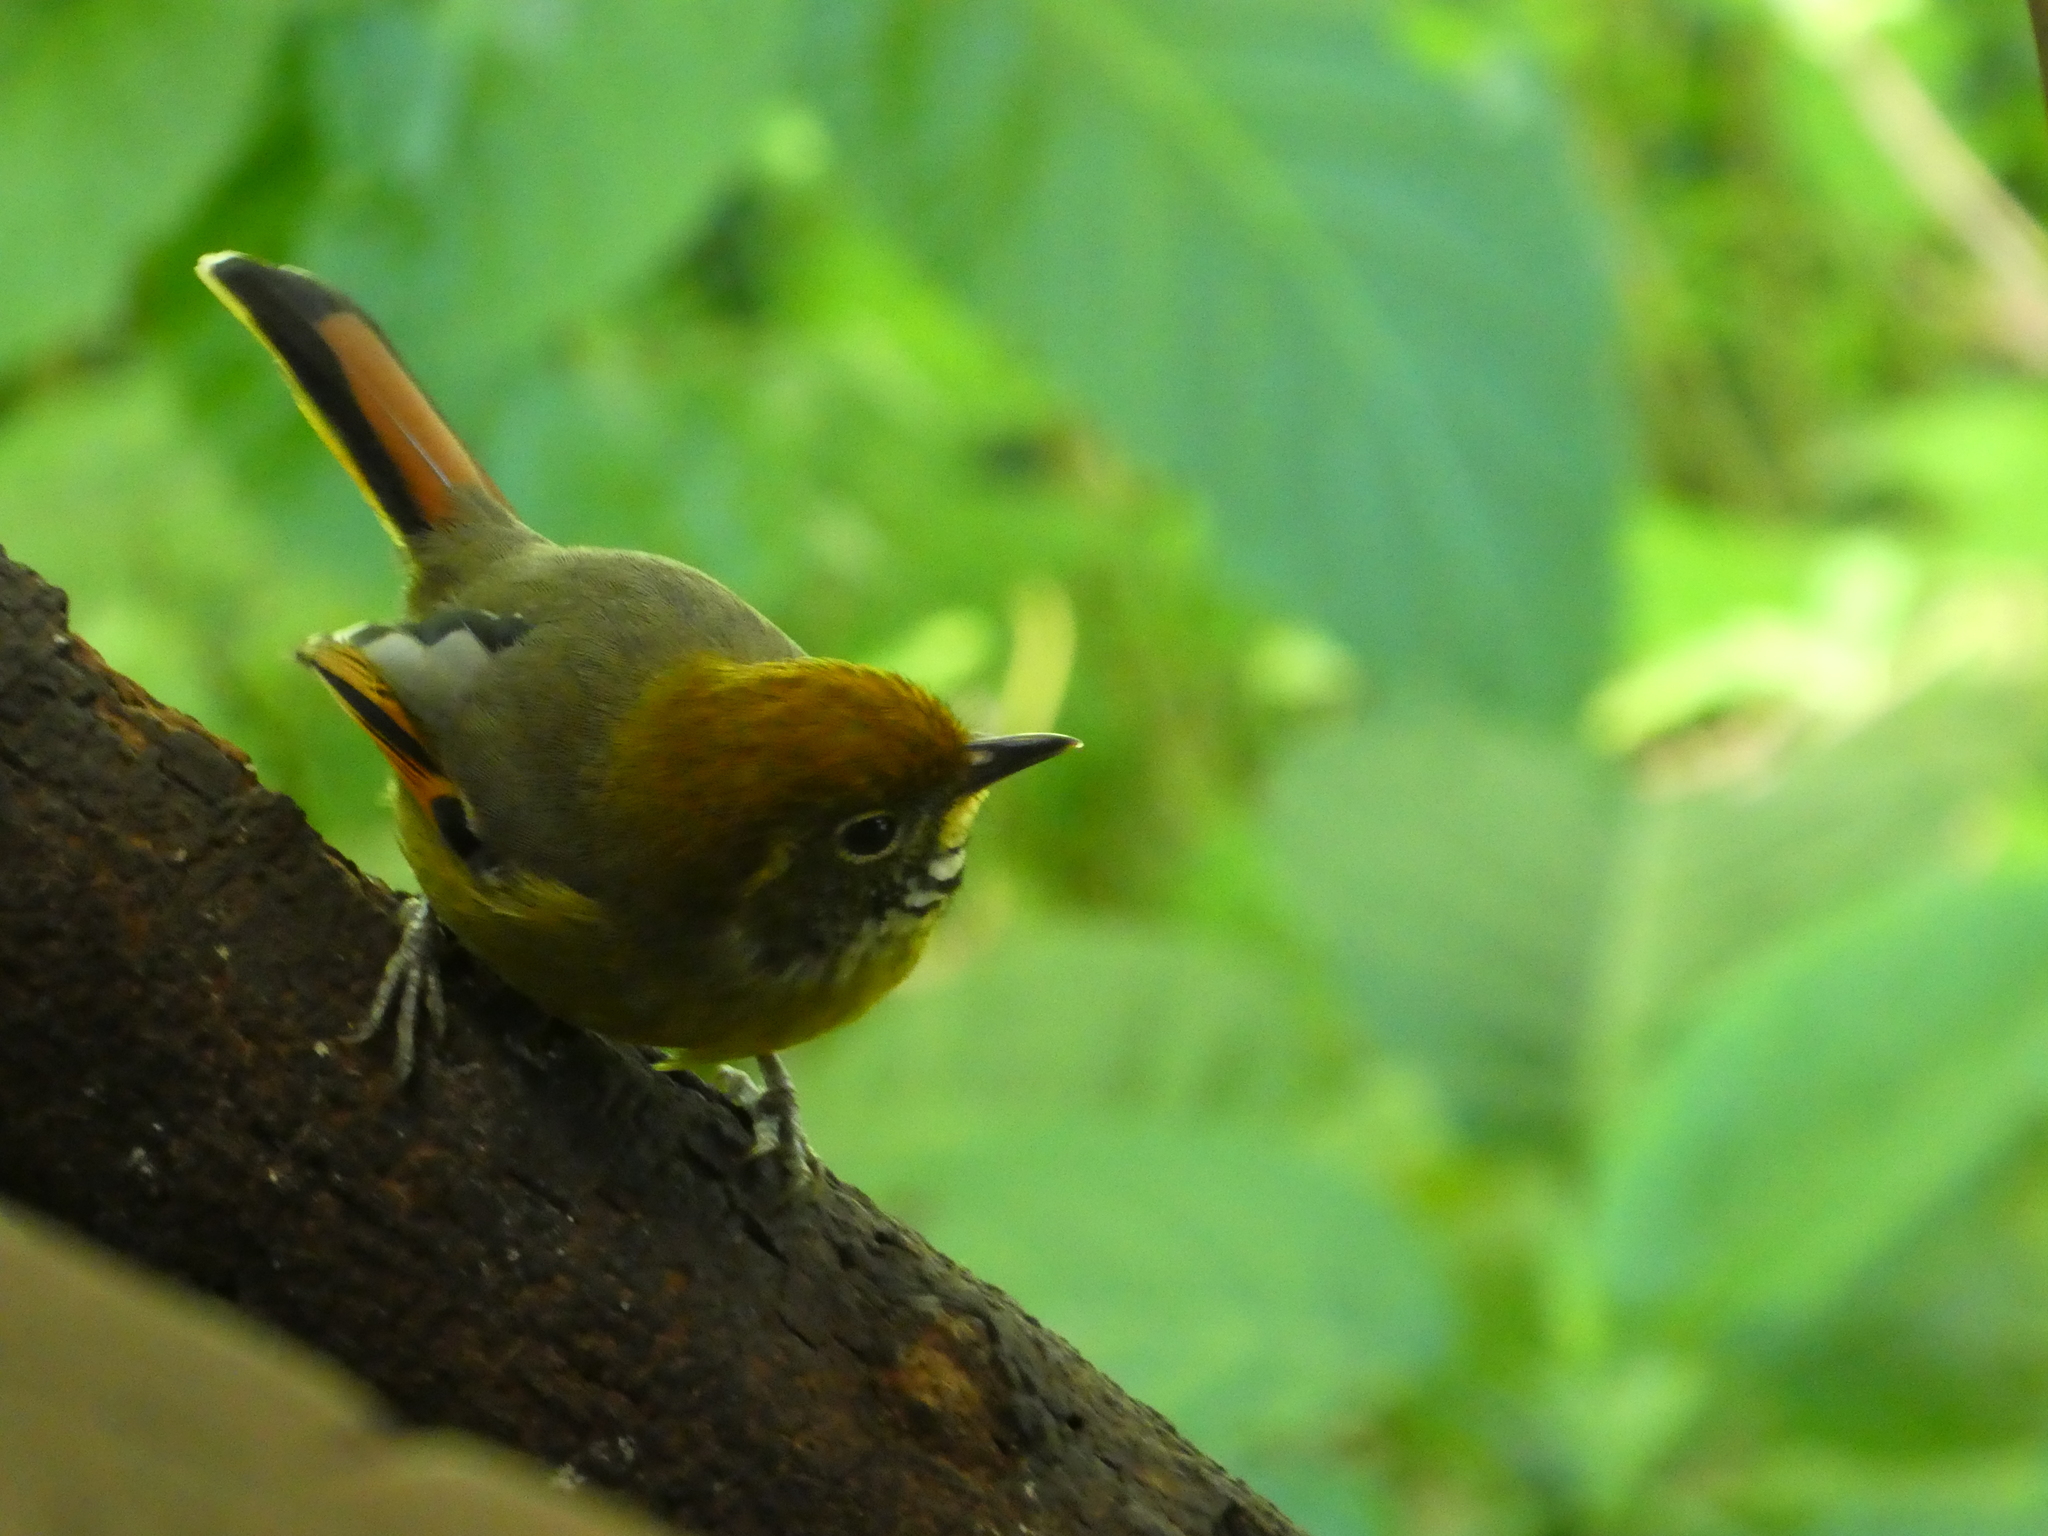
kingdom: Animalia
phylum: Chordata
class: Aves
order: Passeriformes
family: Leiothrichidae
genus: Minla
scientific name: Minla strigula
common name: Chestnut-tailed minla
